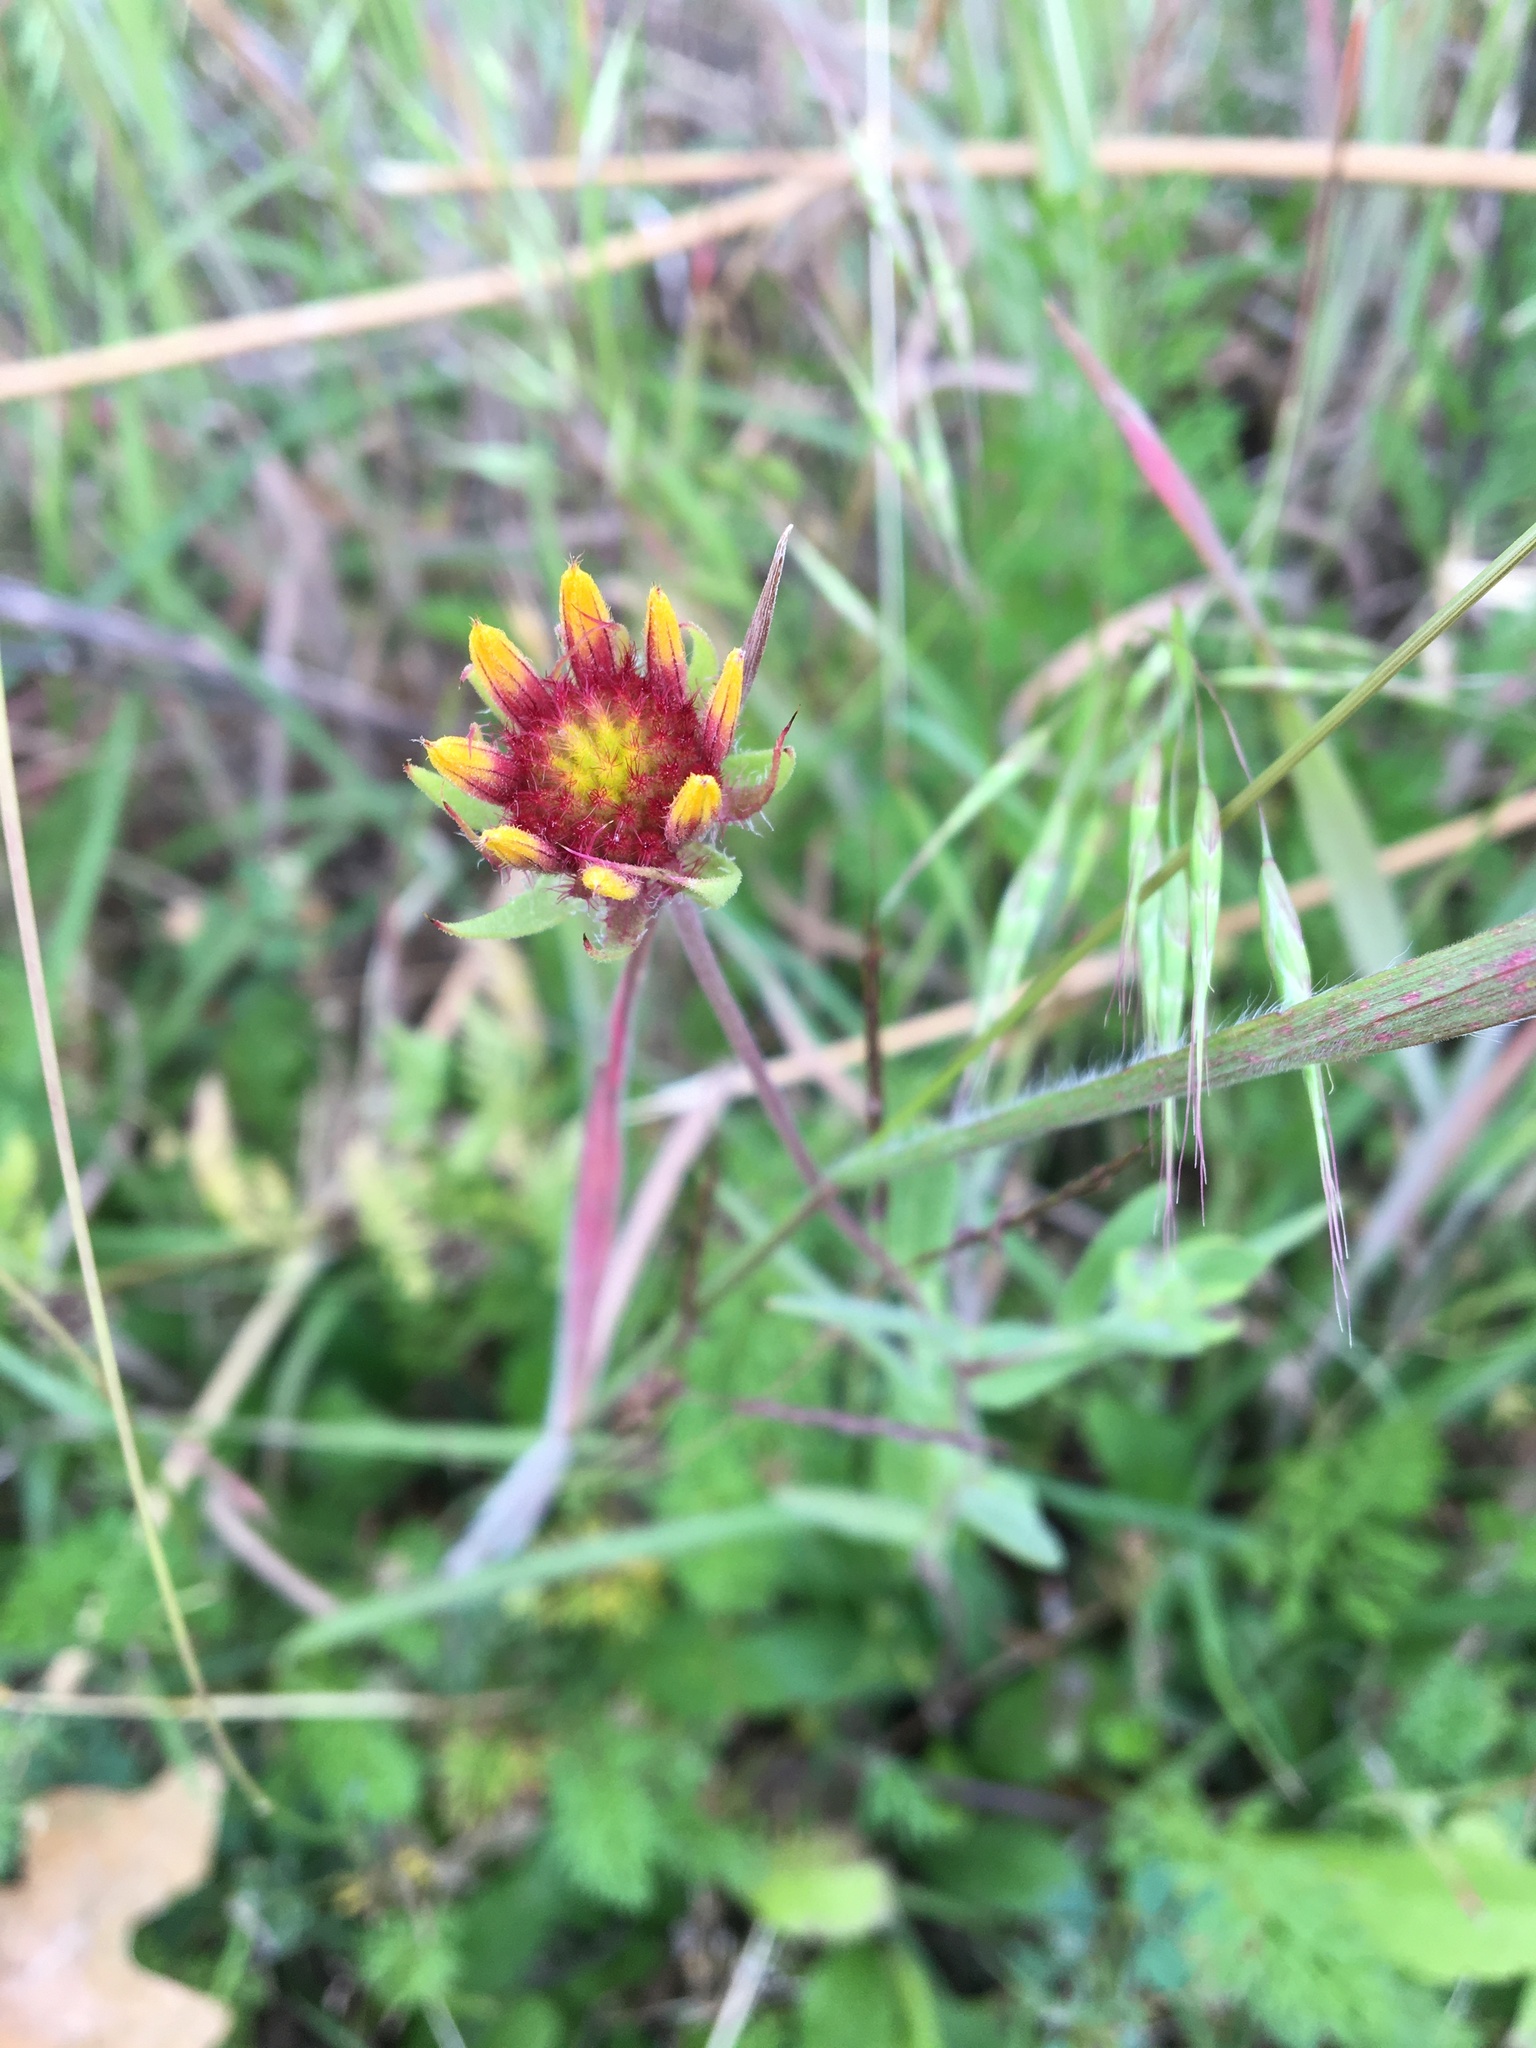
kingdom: Plantae
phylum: Tracheophyta
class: Magnoliopsida
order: Asterales
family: Asteraceae
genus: Gaillardia
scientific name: Gaillardia pulchella
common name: Firewheel
